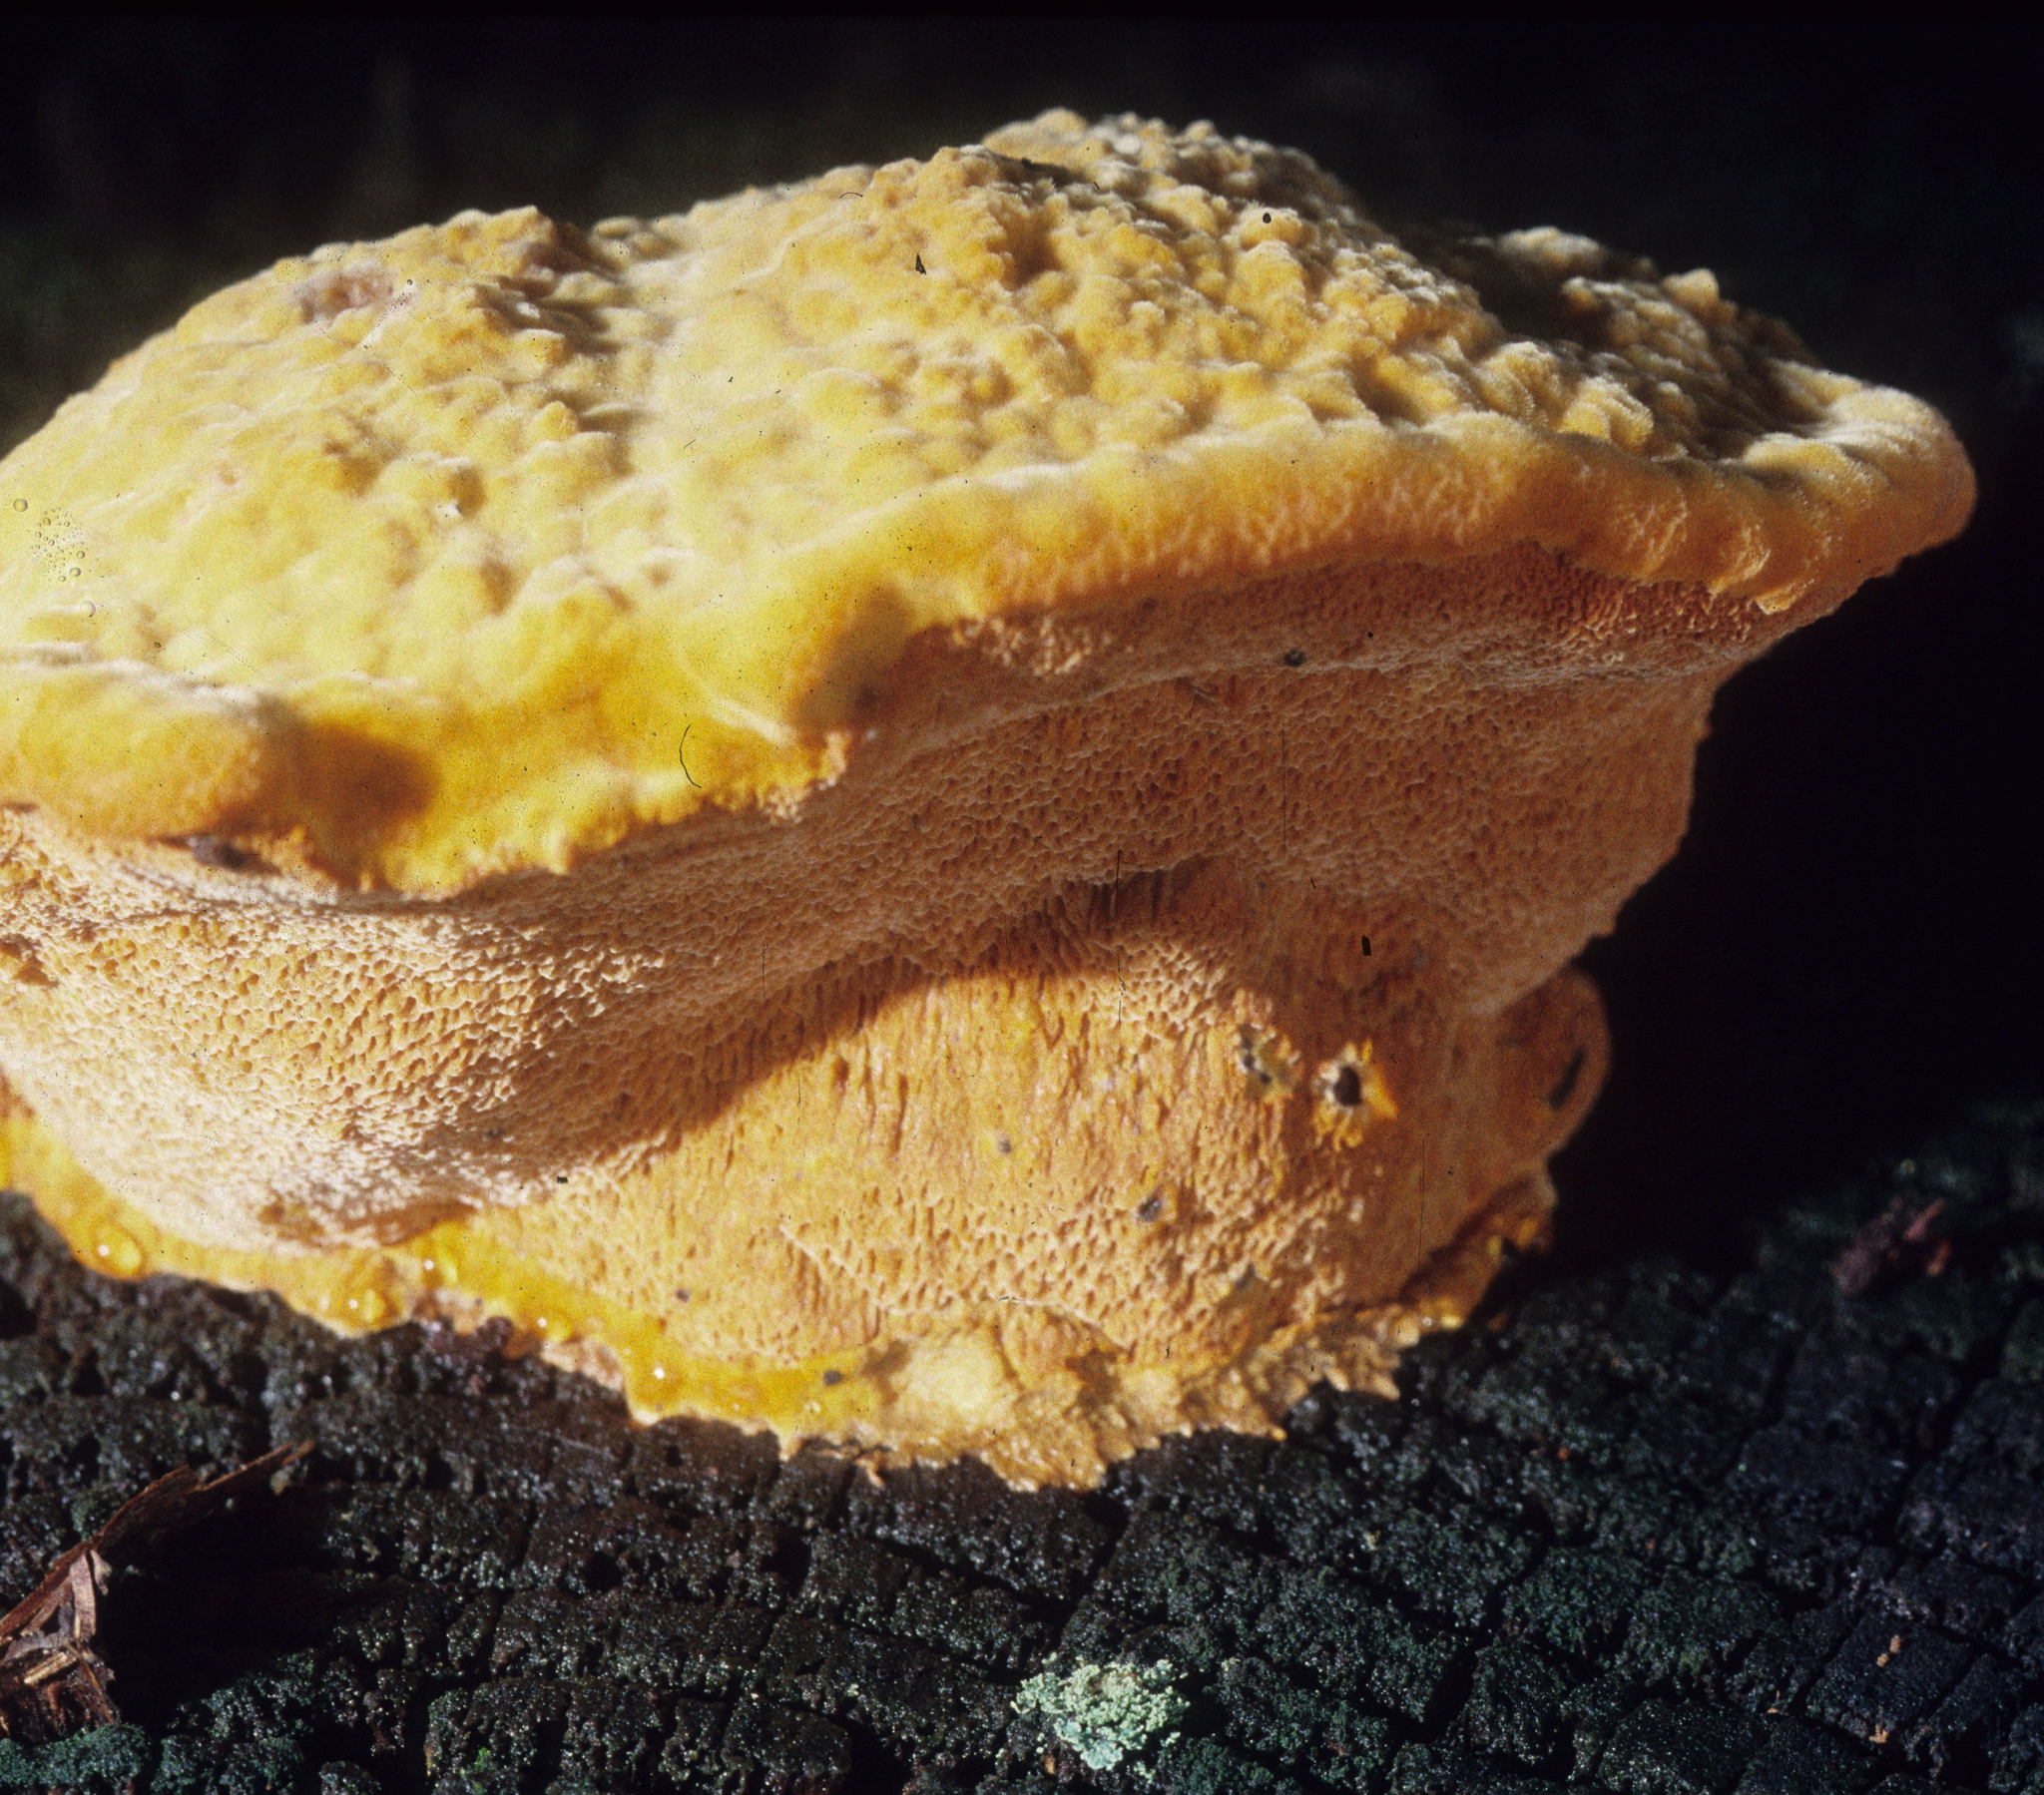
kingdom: Fungi
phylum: Basidiomycota
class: Agaricomycetes
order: Polyporales
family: Phanerochaetaceae
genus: Hapalopilus
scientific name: Hapalopilus croceus
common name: Orange polypore
